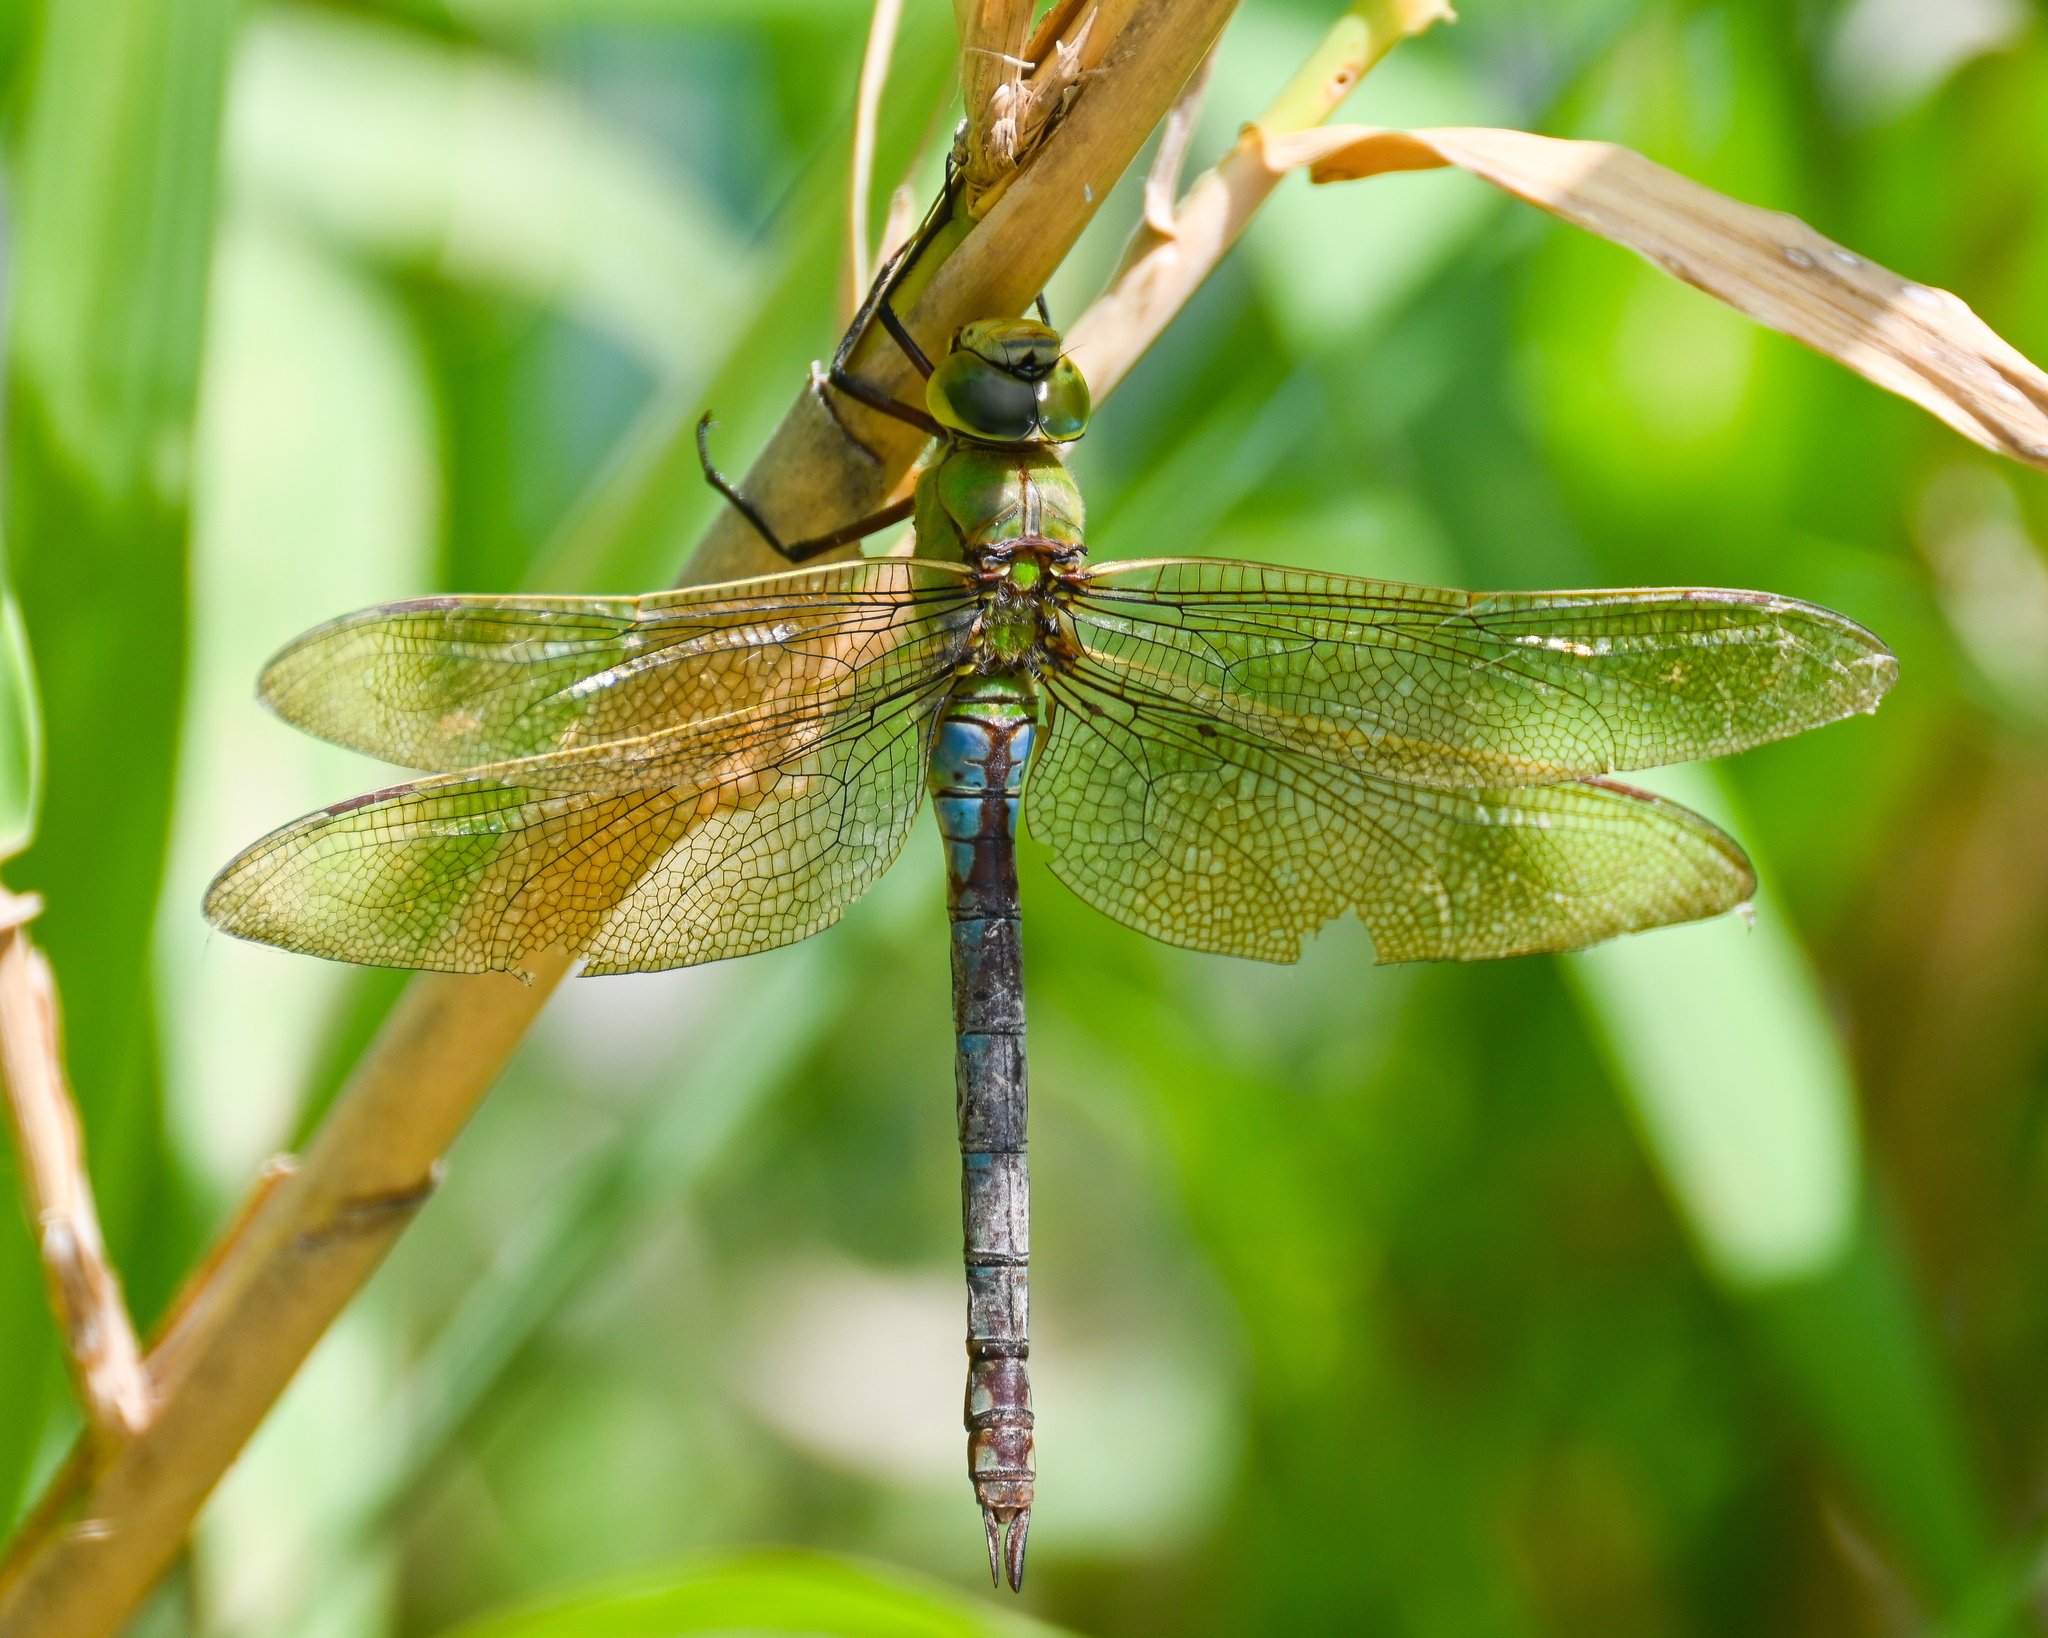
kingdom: Animalia
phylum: Arthropoda
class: Insecta
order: Odonata
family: Aeshnidae
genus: Anax
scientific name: Anax imperator
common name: Emperor dragonfly
